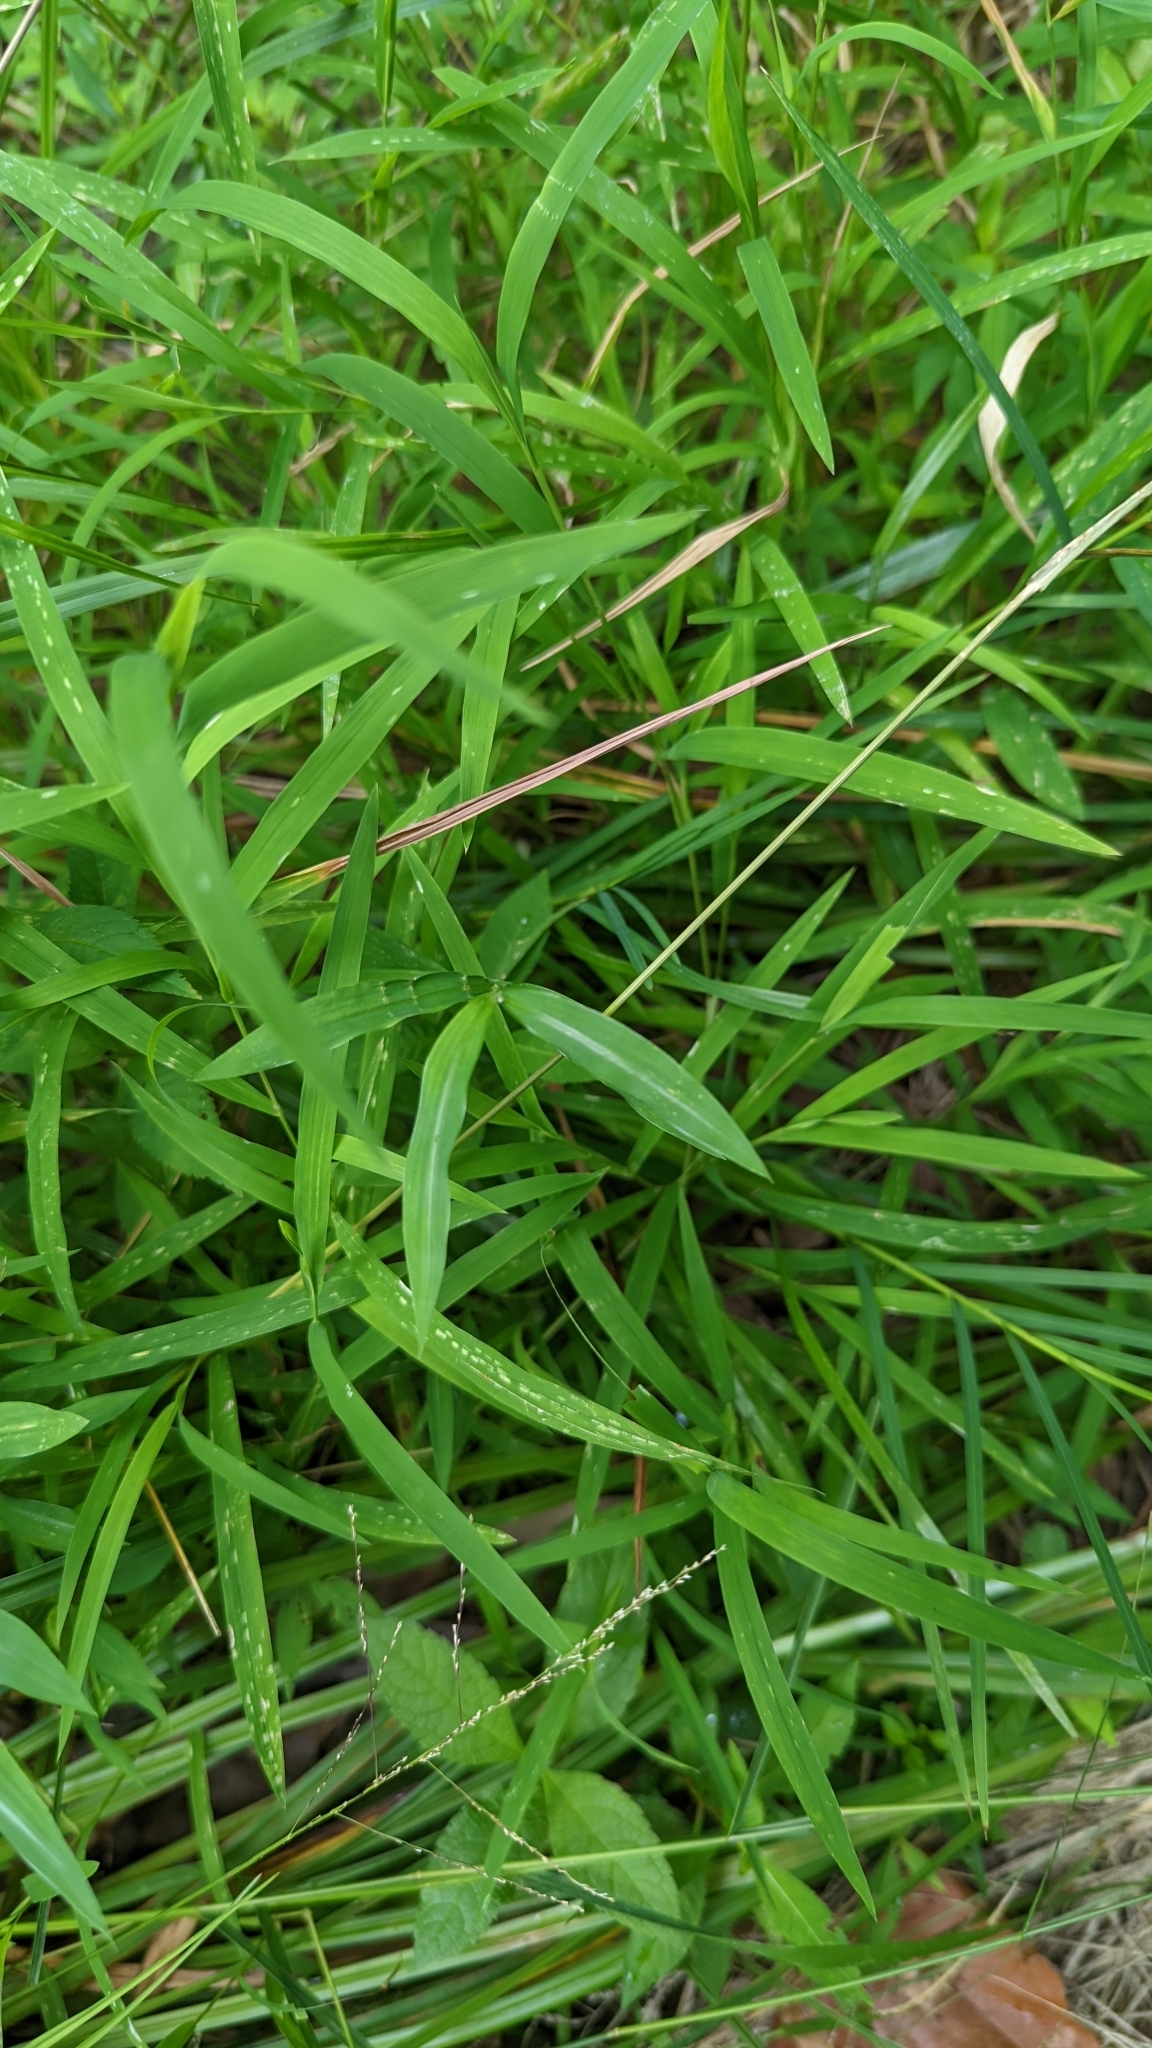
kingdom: Plantae
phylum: Tracheophyta
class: Liliopsida
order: Poales
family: Poaceae
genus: Microstegium
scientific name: Microstegium vimineum
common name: Japanese stiltgrass
